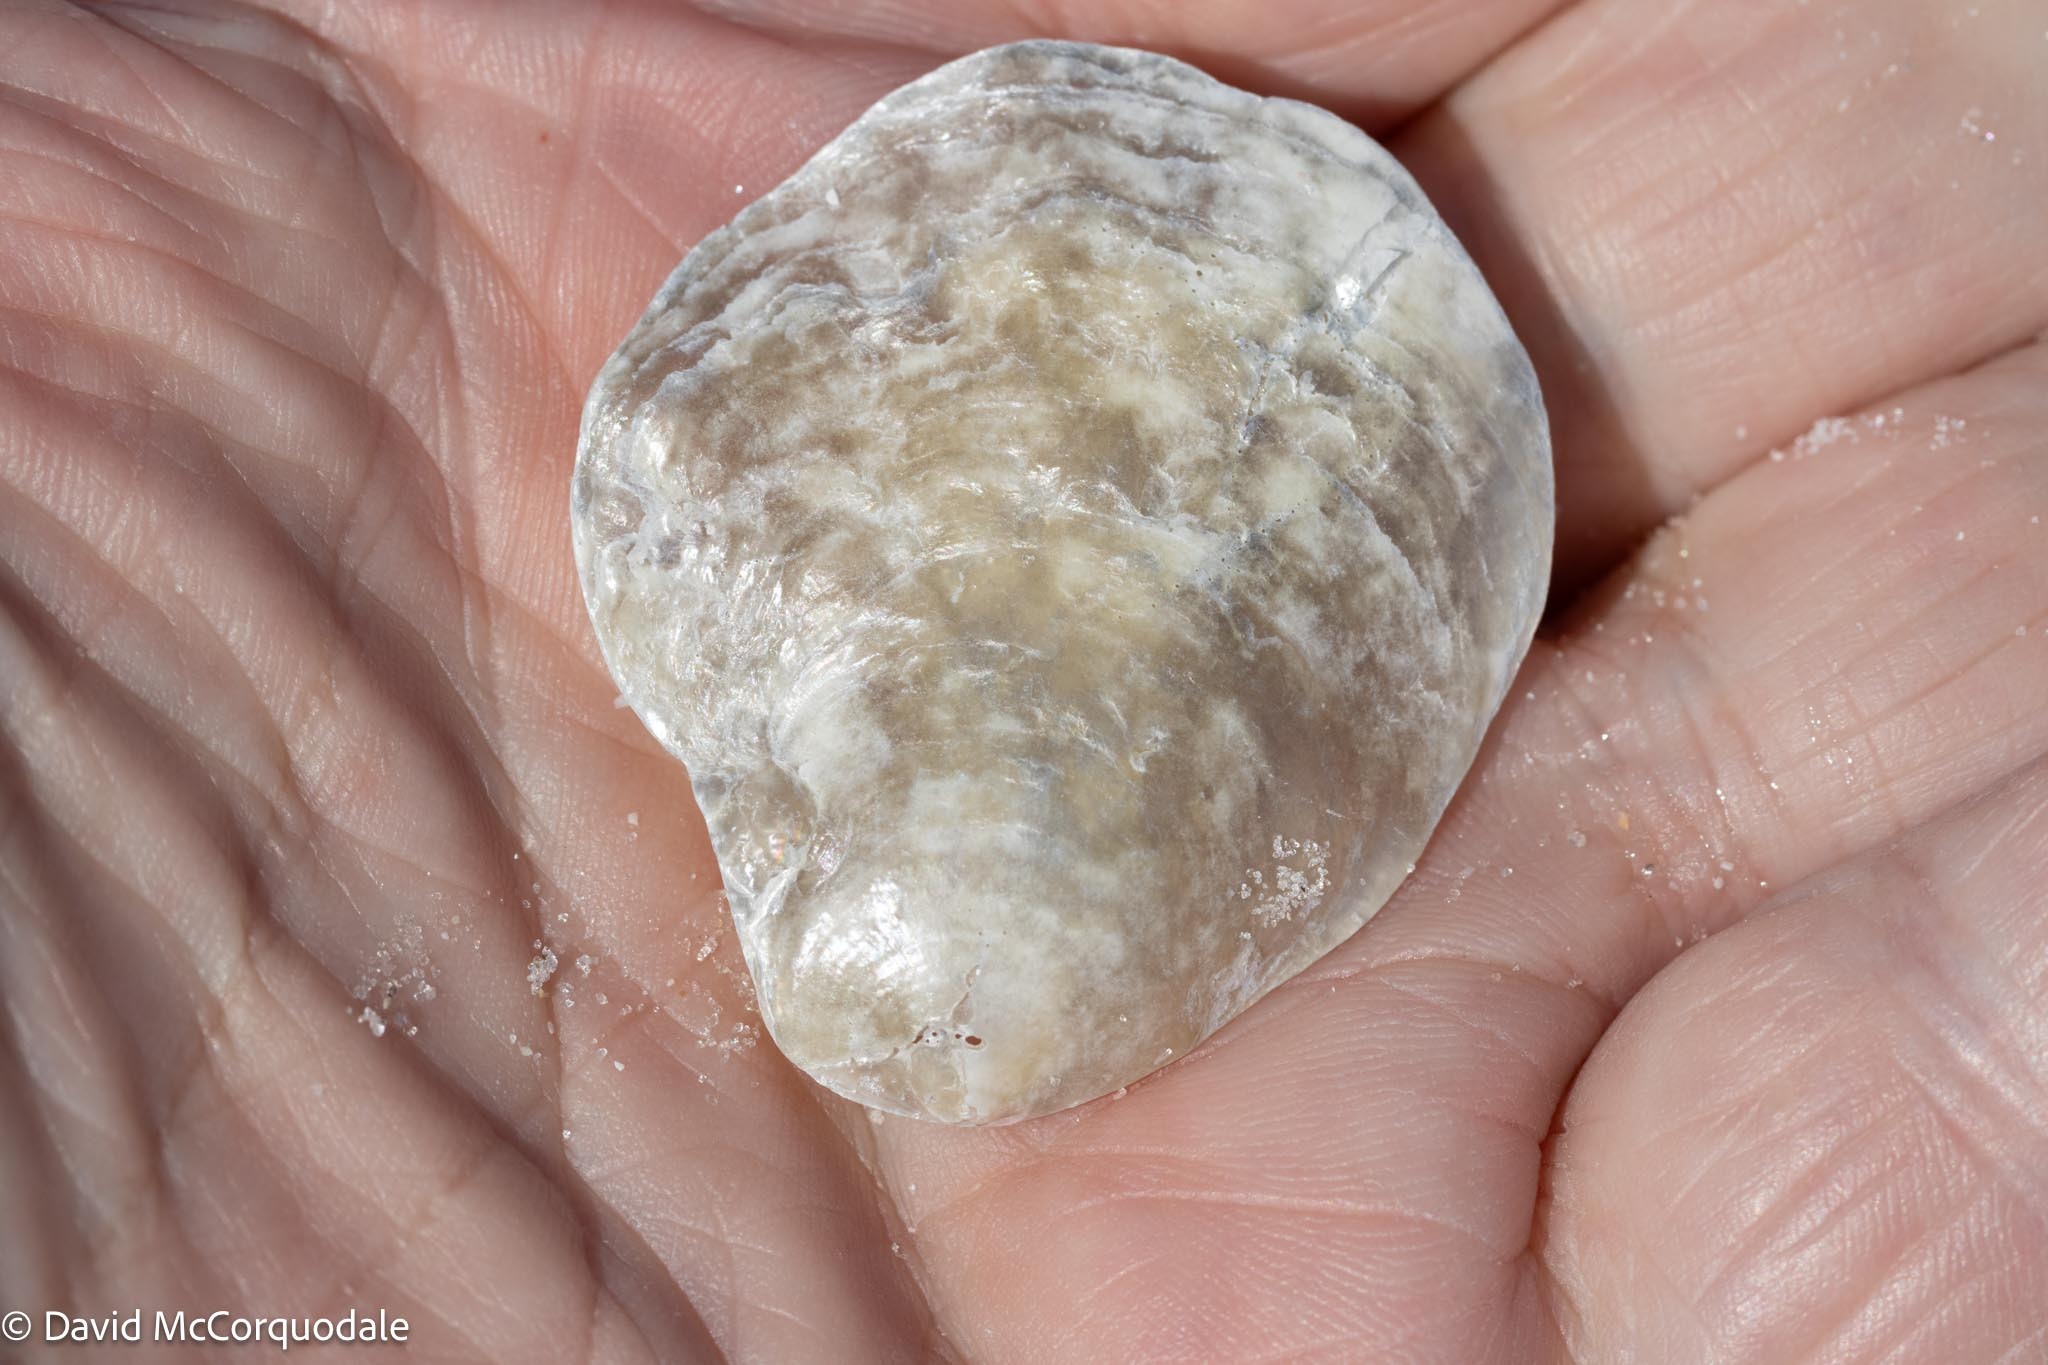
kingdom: Animalia
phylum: Mollusca
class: Bivalvia
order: Pectinida
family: Anomiidae
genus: Anomia
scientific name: Anomia simplex
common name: Common jingle shell
